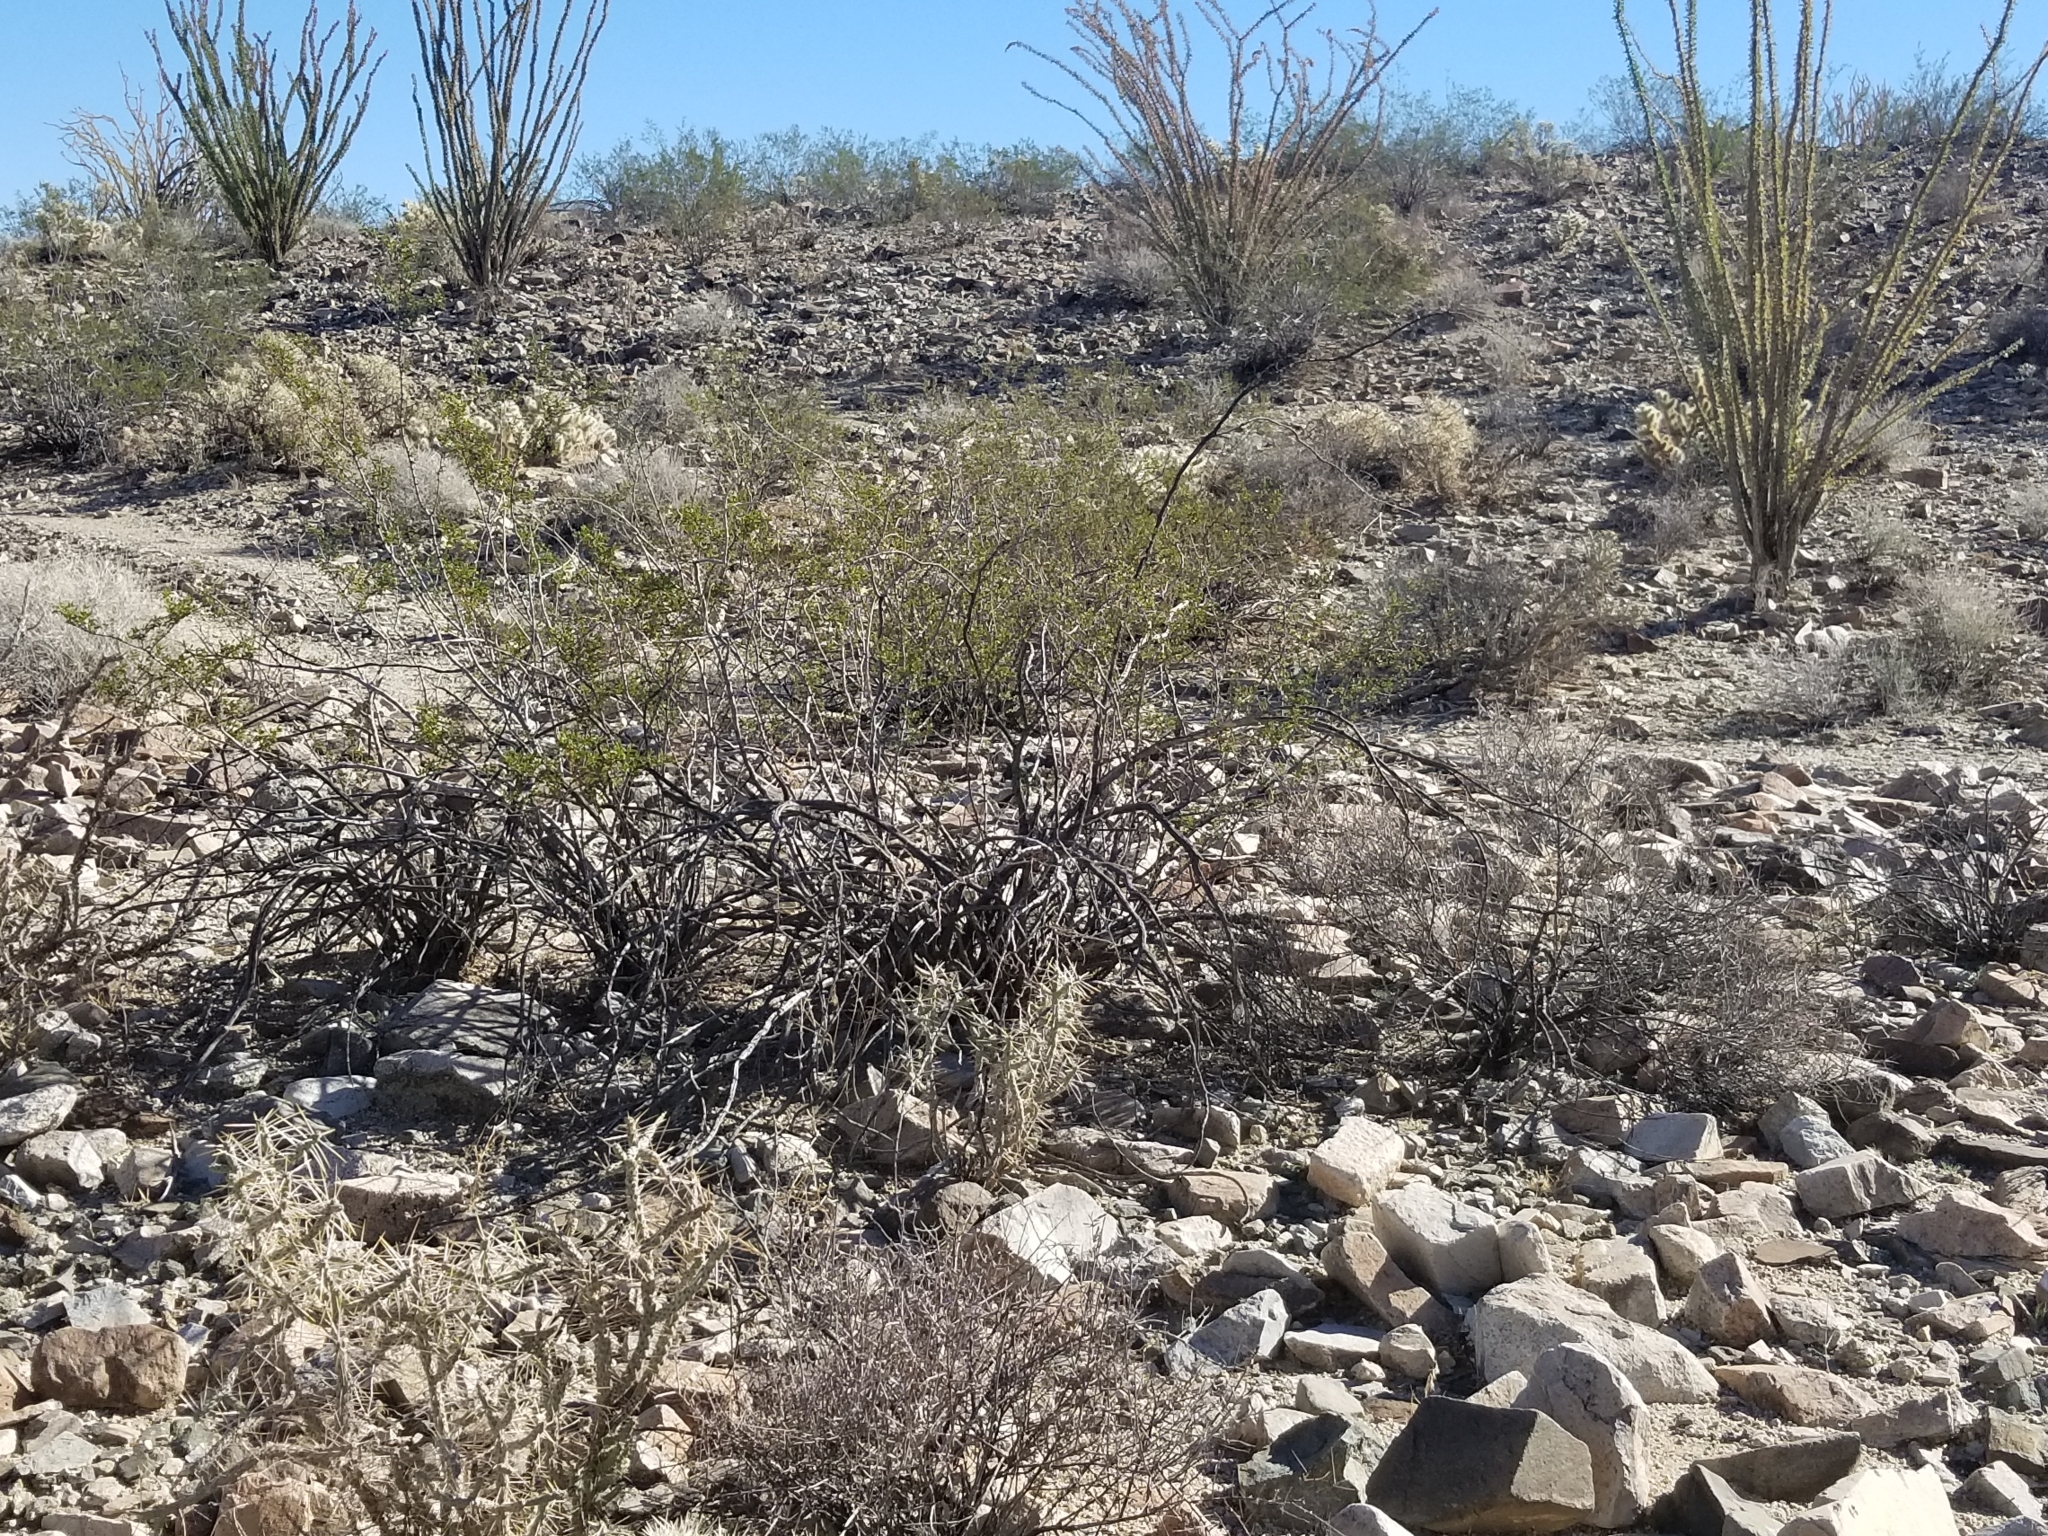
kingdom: Plantae
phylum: Tracheophyta
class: Magnoliopsida
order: Zygophyllales
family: Zygophyllaceae
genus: Larrea
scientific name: Larrea tridentata
